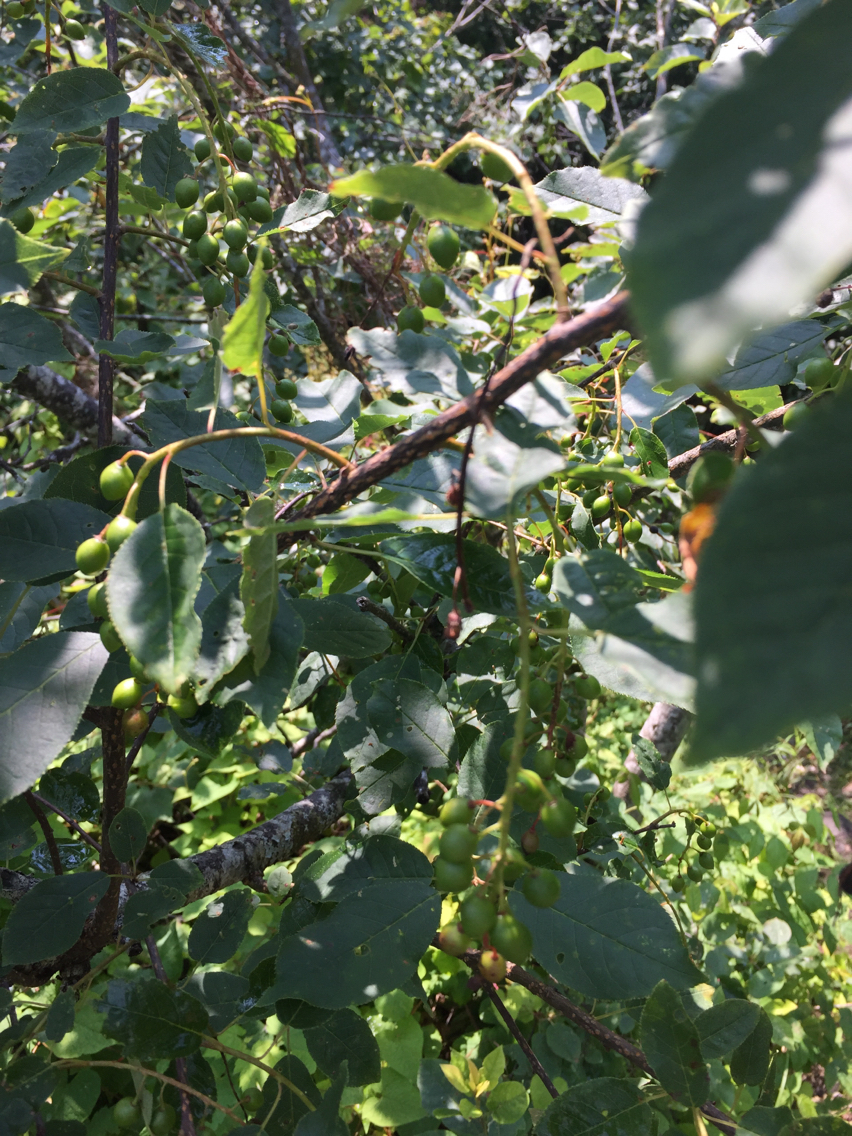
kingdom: Plantae
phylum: Tracheophyta
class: Magnoliopsida
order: Rosales
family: Rosaceae
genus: Prunus
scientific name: Prunus virginiana
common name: Chokecherry
